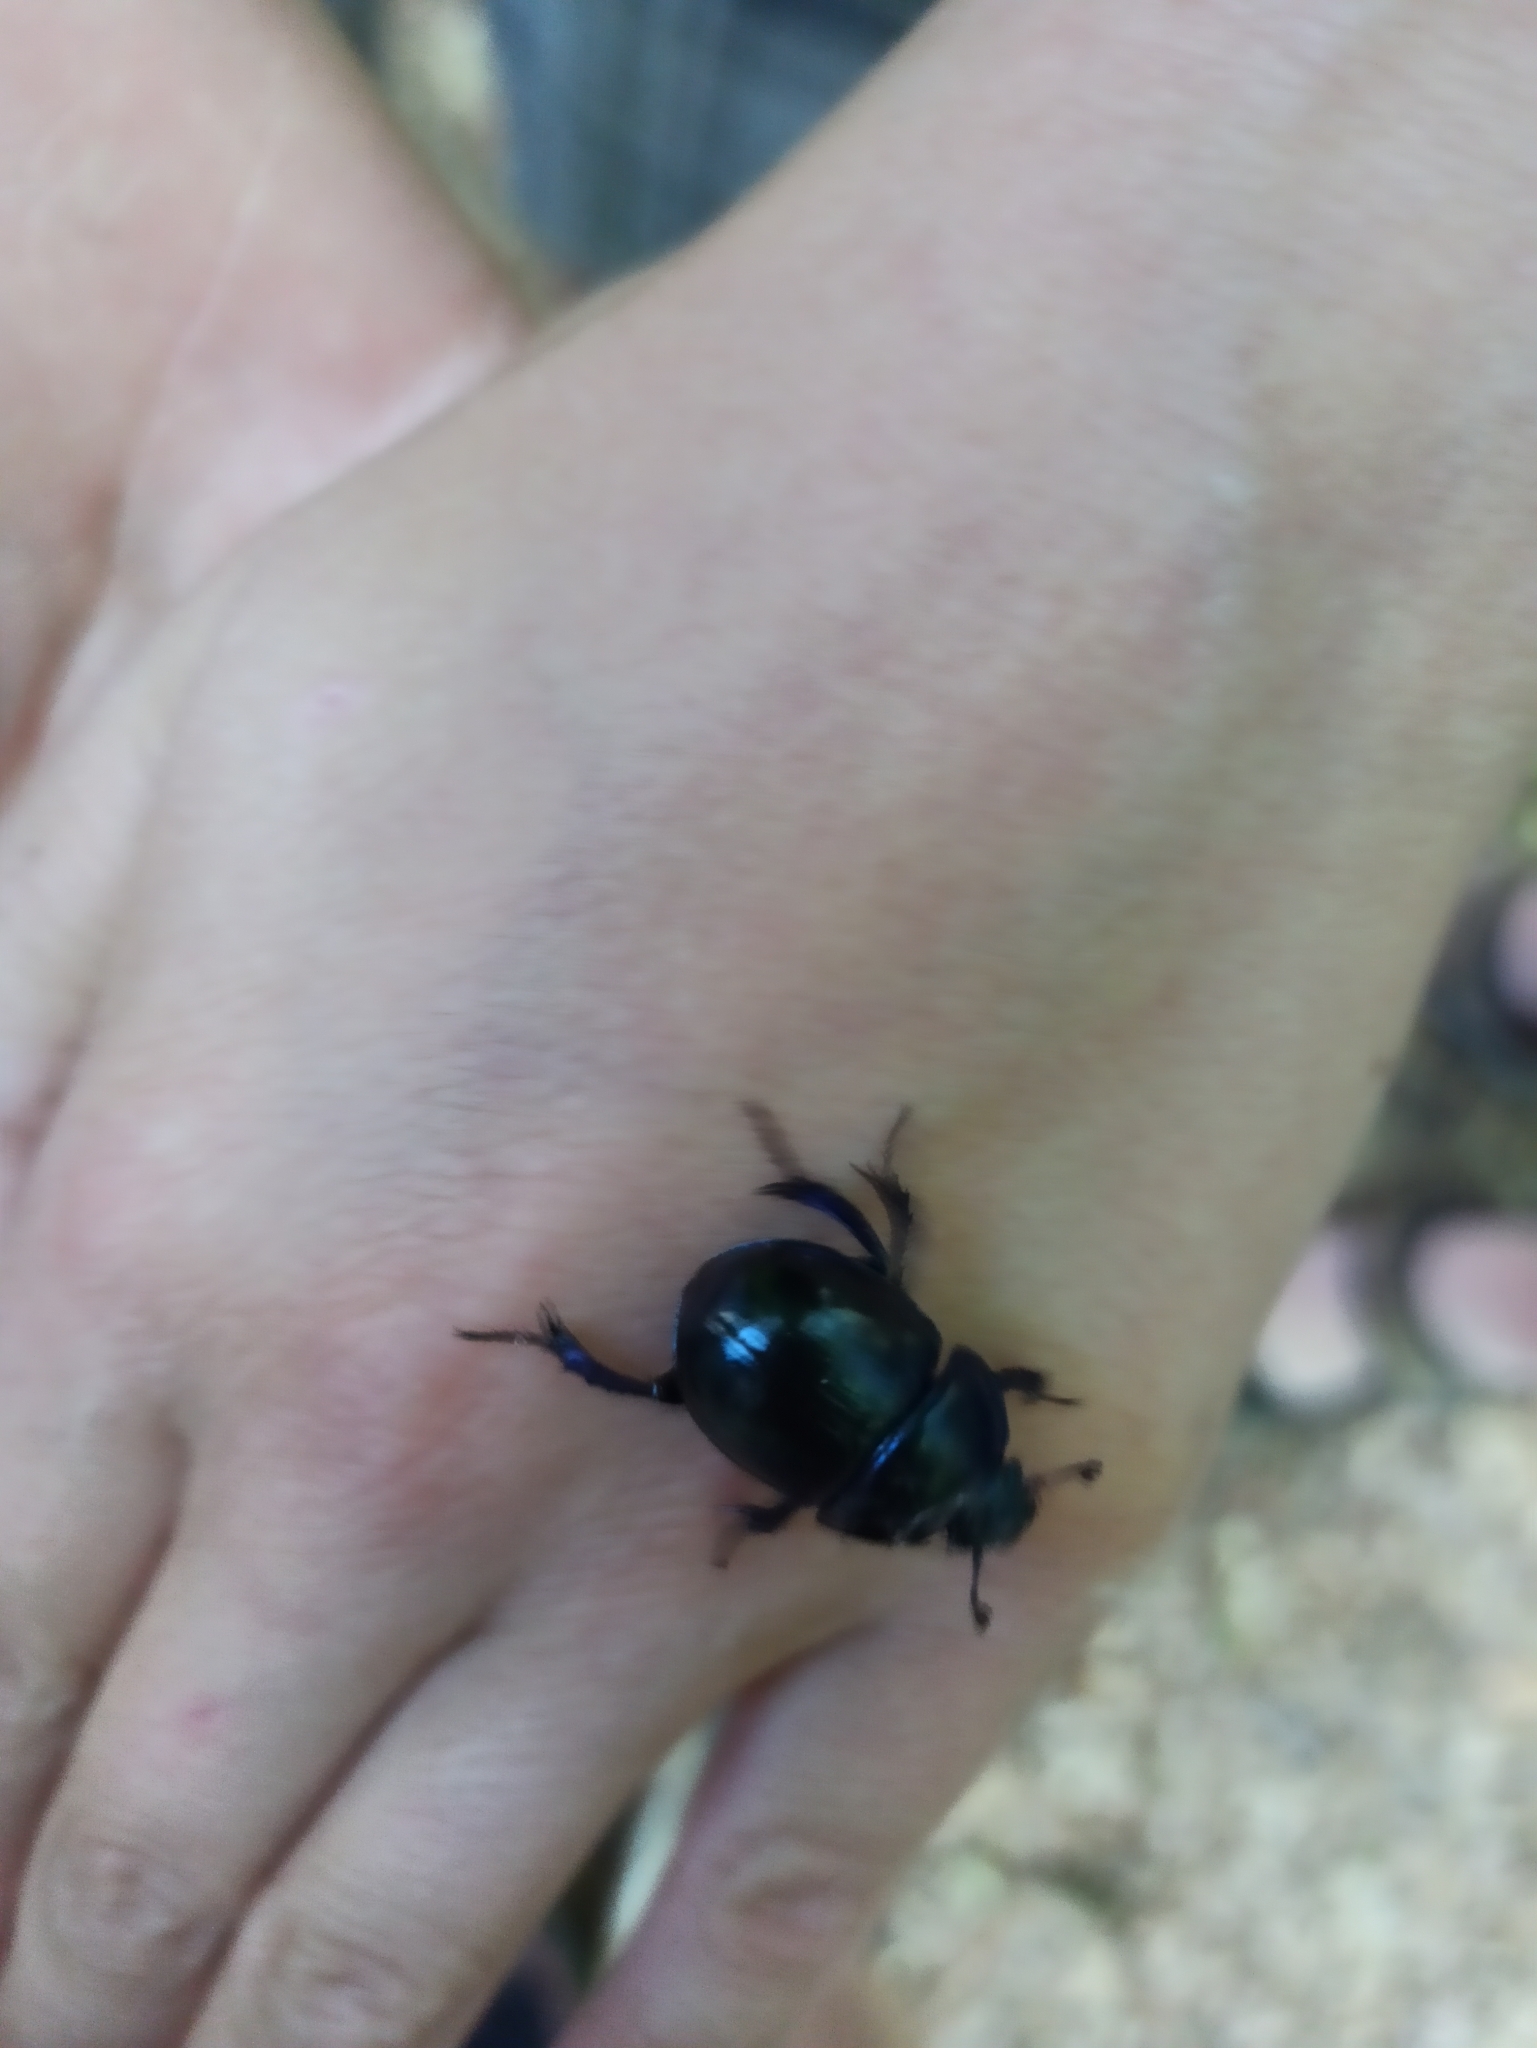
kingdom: Animalia
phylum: Arthropoda
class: Insecta
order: Coleoptera
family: Geotrupidae
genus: Anoplotrupes
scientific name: Anoplotrupes stercorosus
